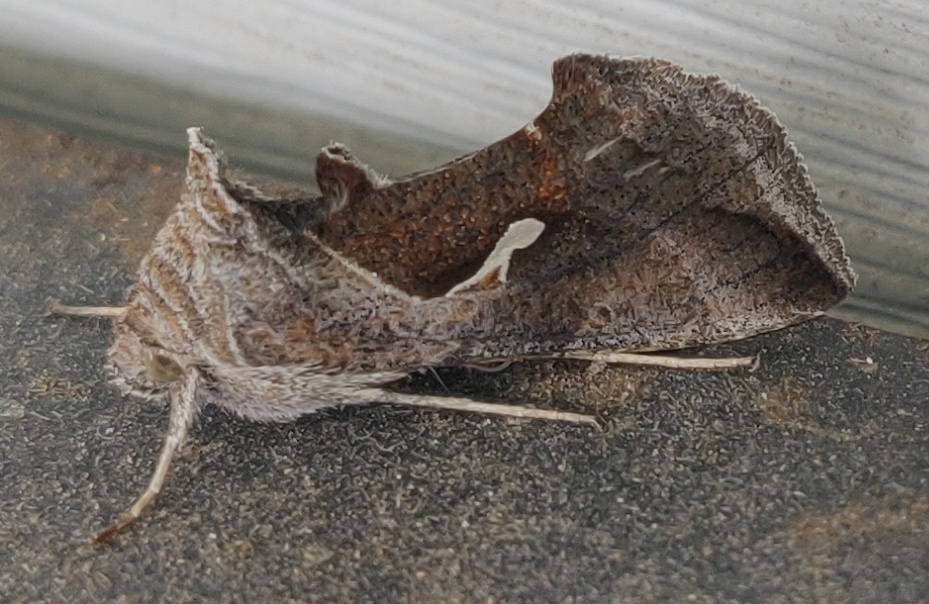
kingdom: Animalia
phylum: Arthropoda
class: Insecta
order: Lepidoptera
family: Noctuidae
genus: Anagrapha
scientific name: Anagrapha falcifera
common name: Celery looper
